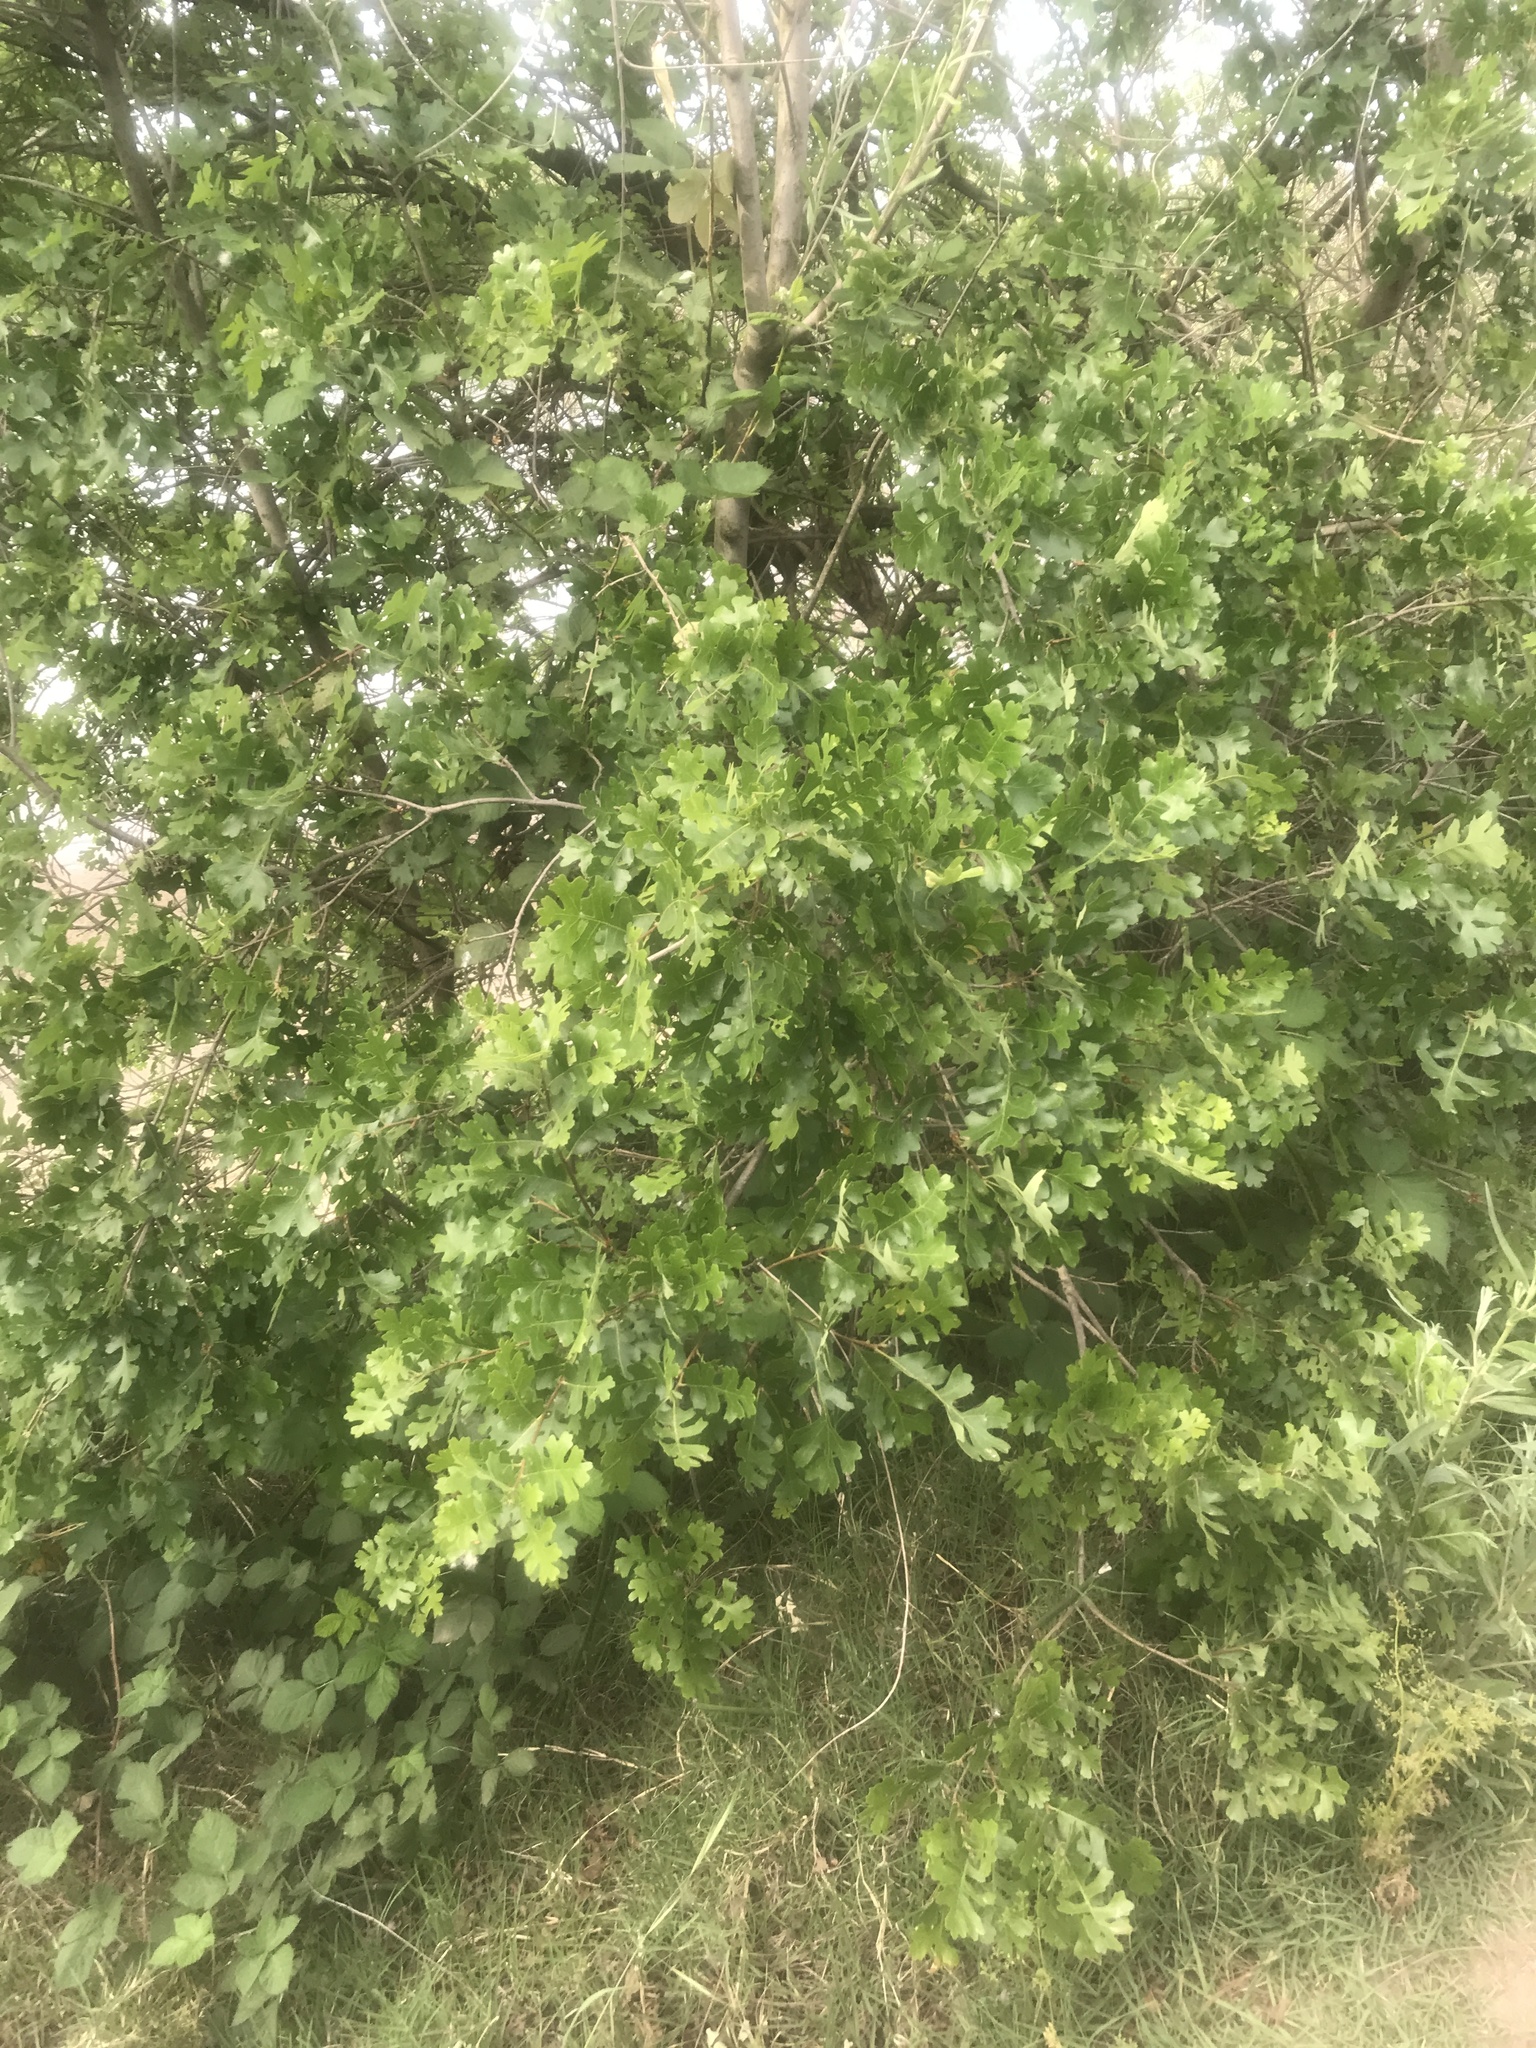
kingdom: Plantae
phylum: Tracheophyta
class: Magnoliopsida
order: Fagales
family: Fagaceae
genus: Quercus
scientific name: Quercus lobata
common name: Valley oak
